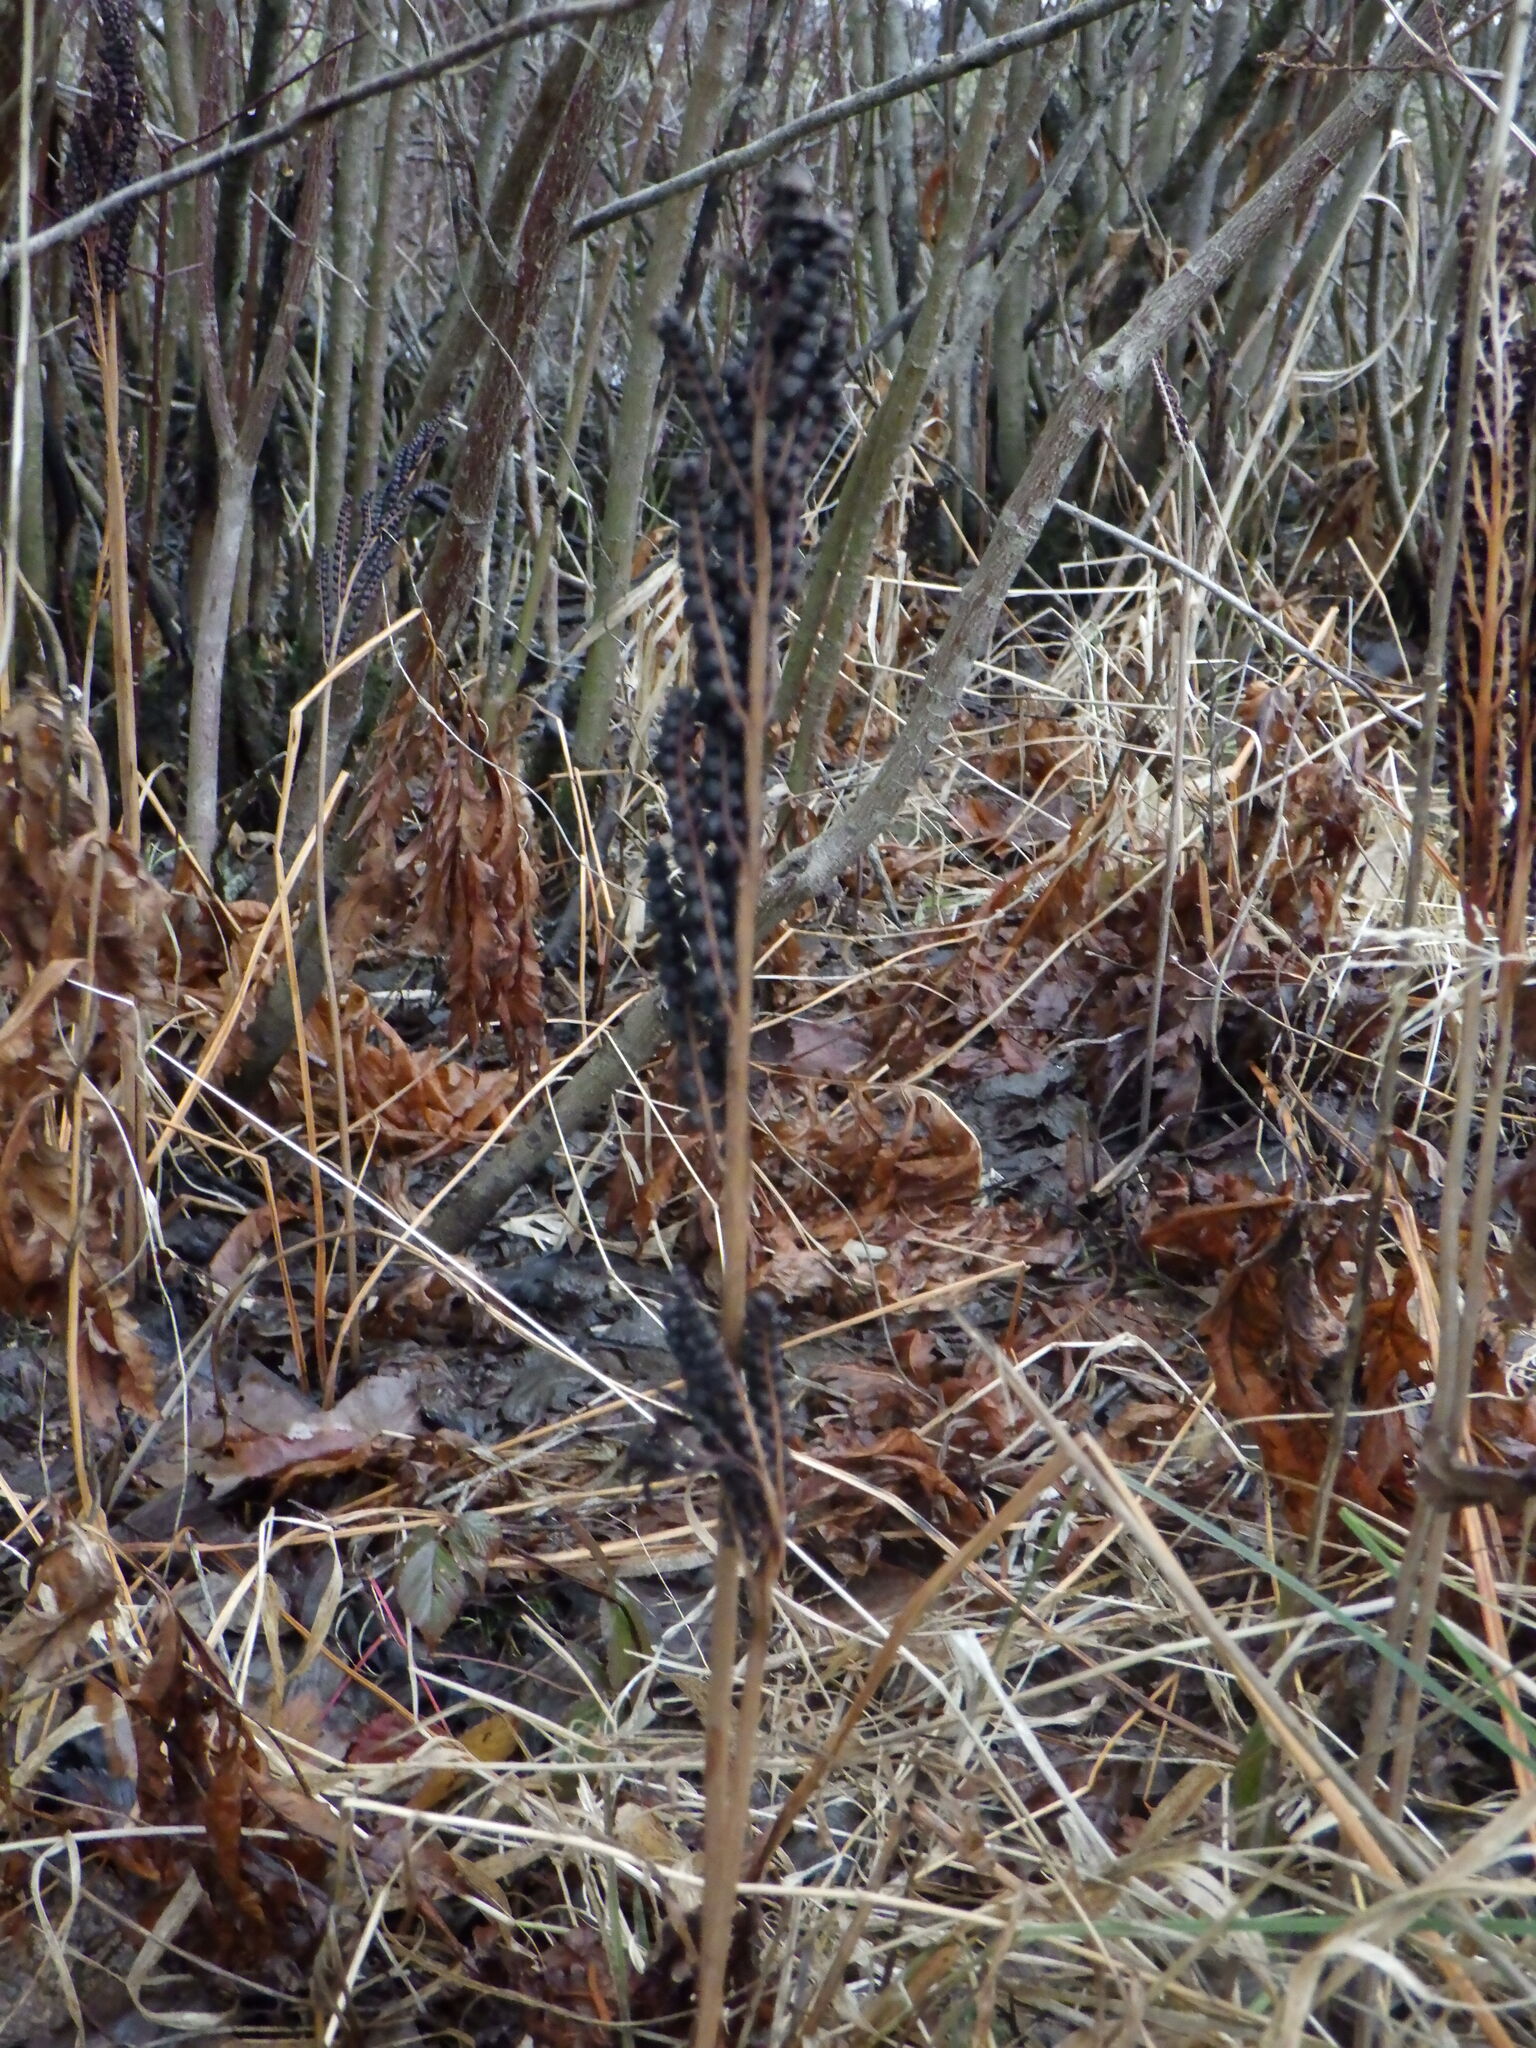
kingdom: Plantae
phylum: Tracheophyta
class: Polypodiopsida
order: Polypodiales
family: Onocleaceae
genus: Onoclea
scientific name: Onoclea sensibilis
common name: Sensitive fern
